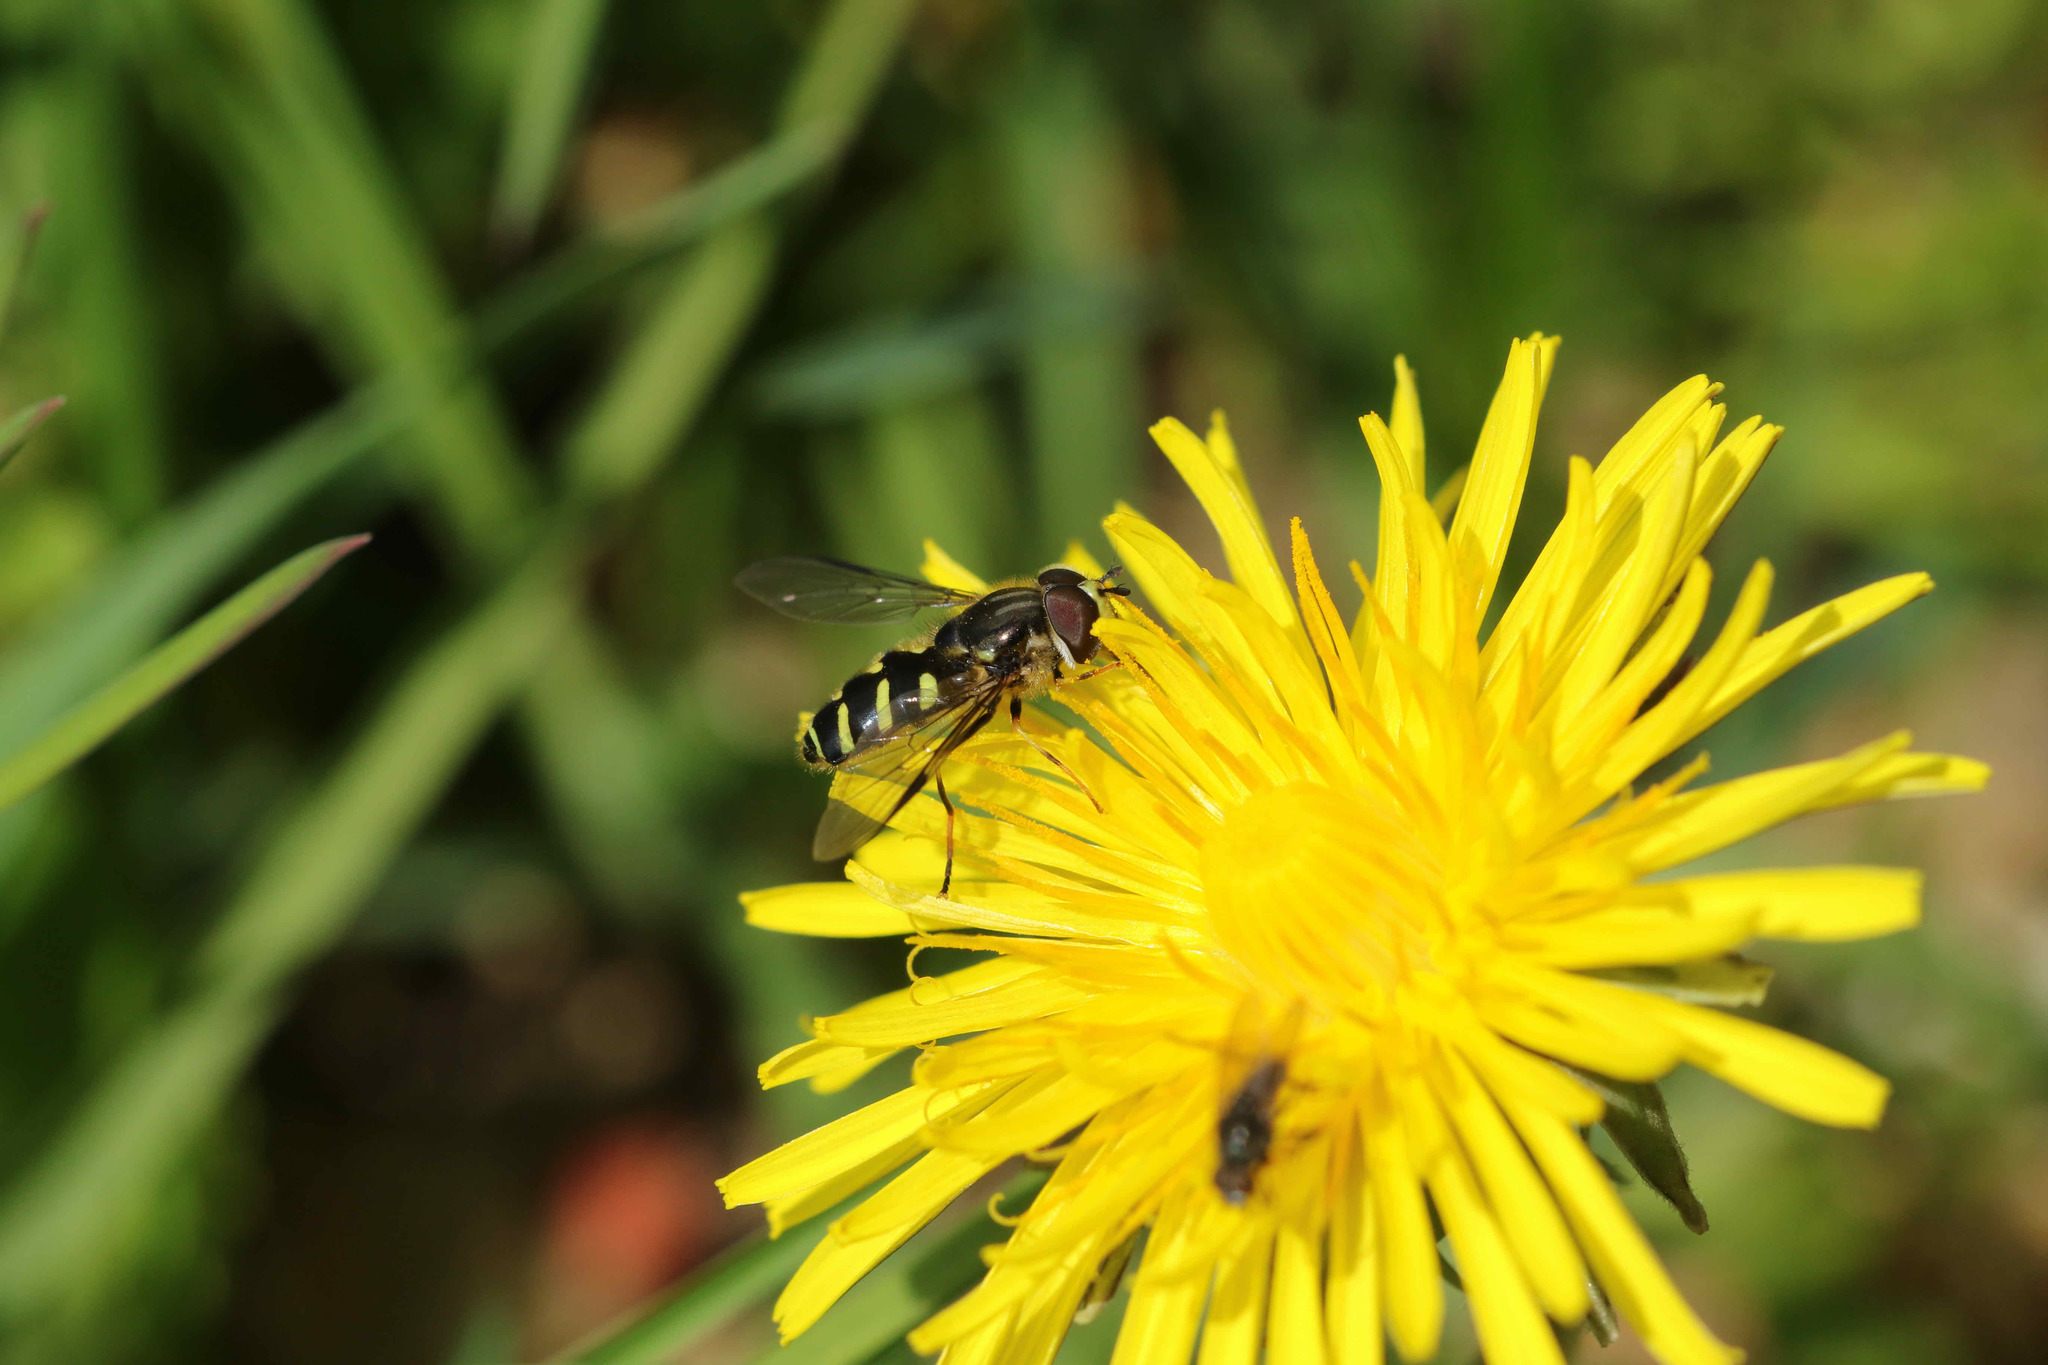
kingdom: Animalia
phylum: Arthropoda
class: Insecta
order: Diptera
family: Syrphidae
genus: Dasysyrphus
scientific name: Dasysyrphus albostriatus
